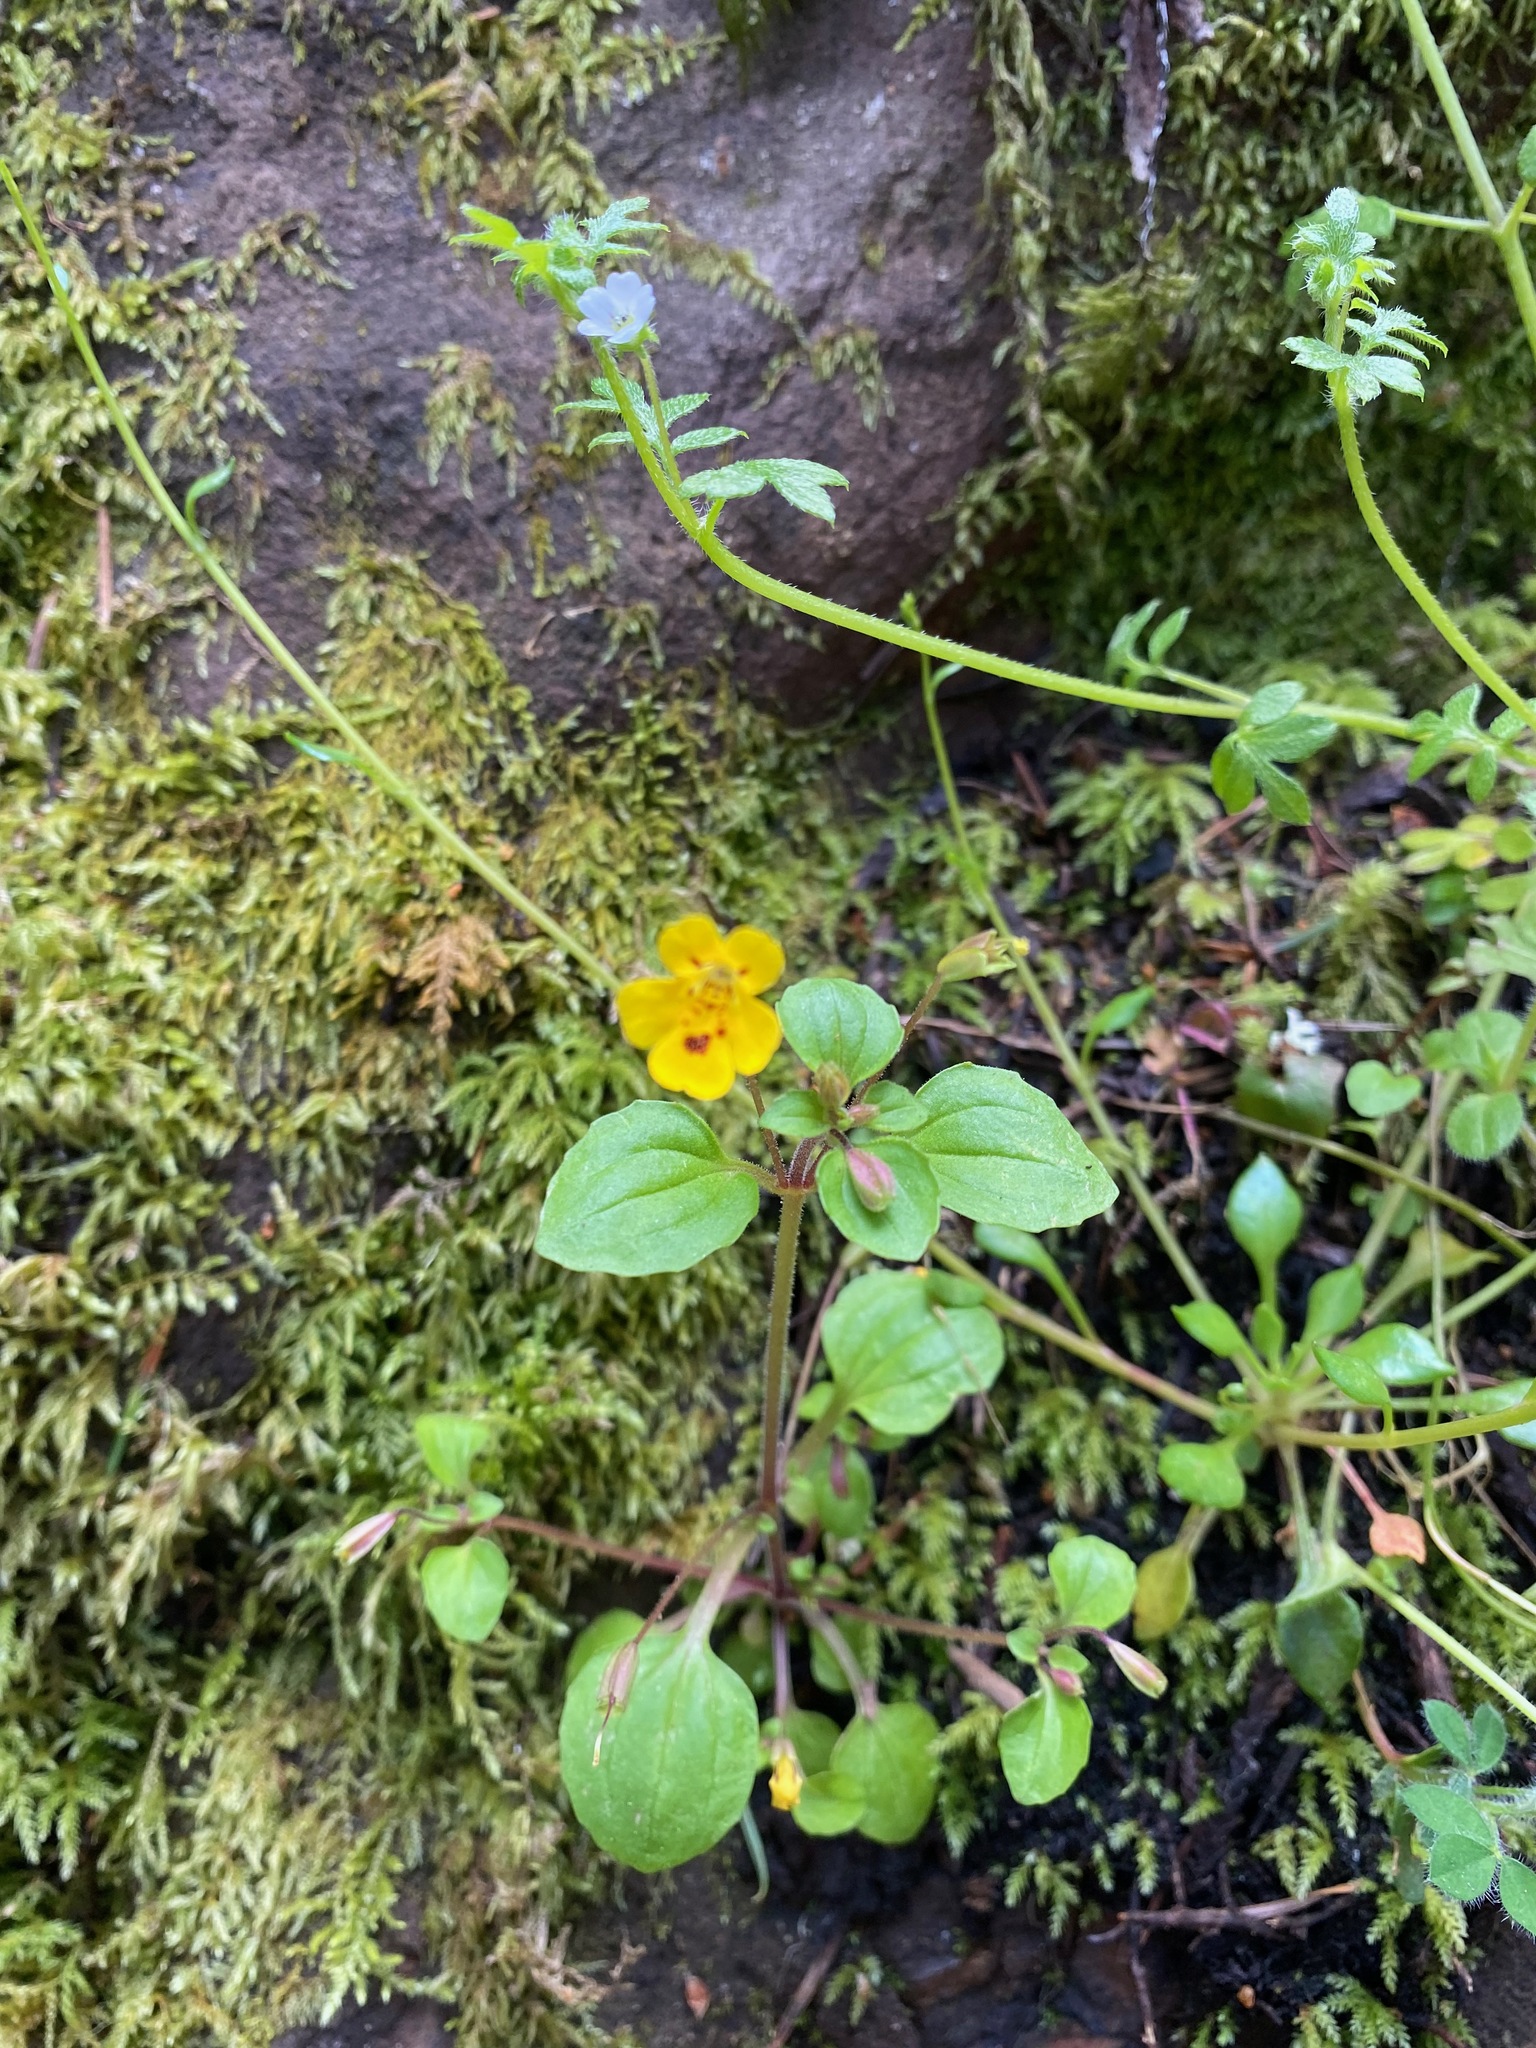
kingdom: Plantae
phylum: Tracheophyta
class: Magnoliopsida
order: Lamiales
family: Phrymaceae
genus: Erythranthe
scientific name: Erythranthe alsinoides
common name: Chickweed monkeyflower
